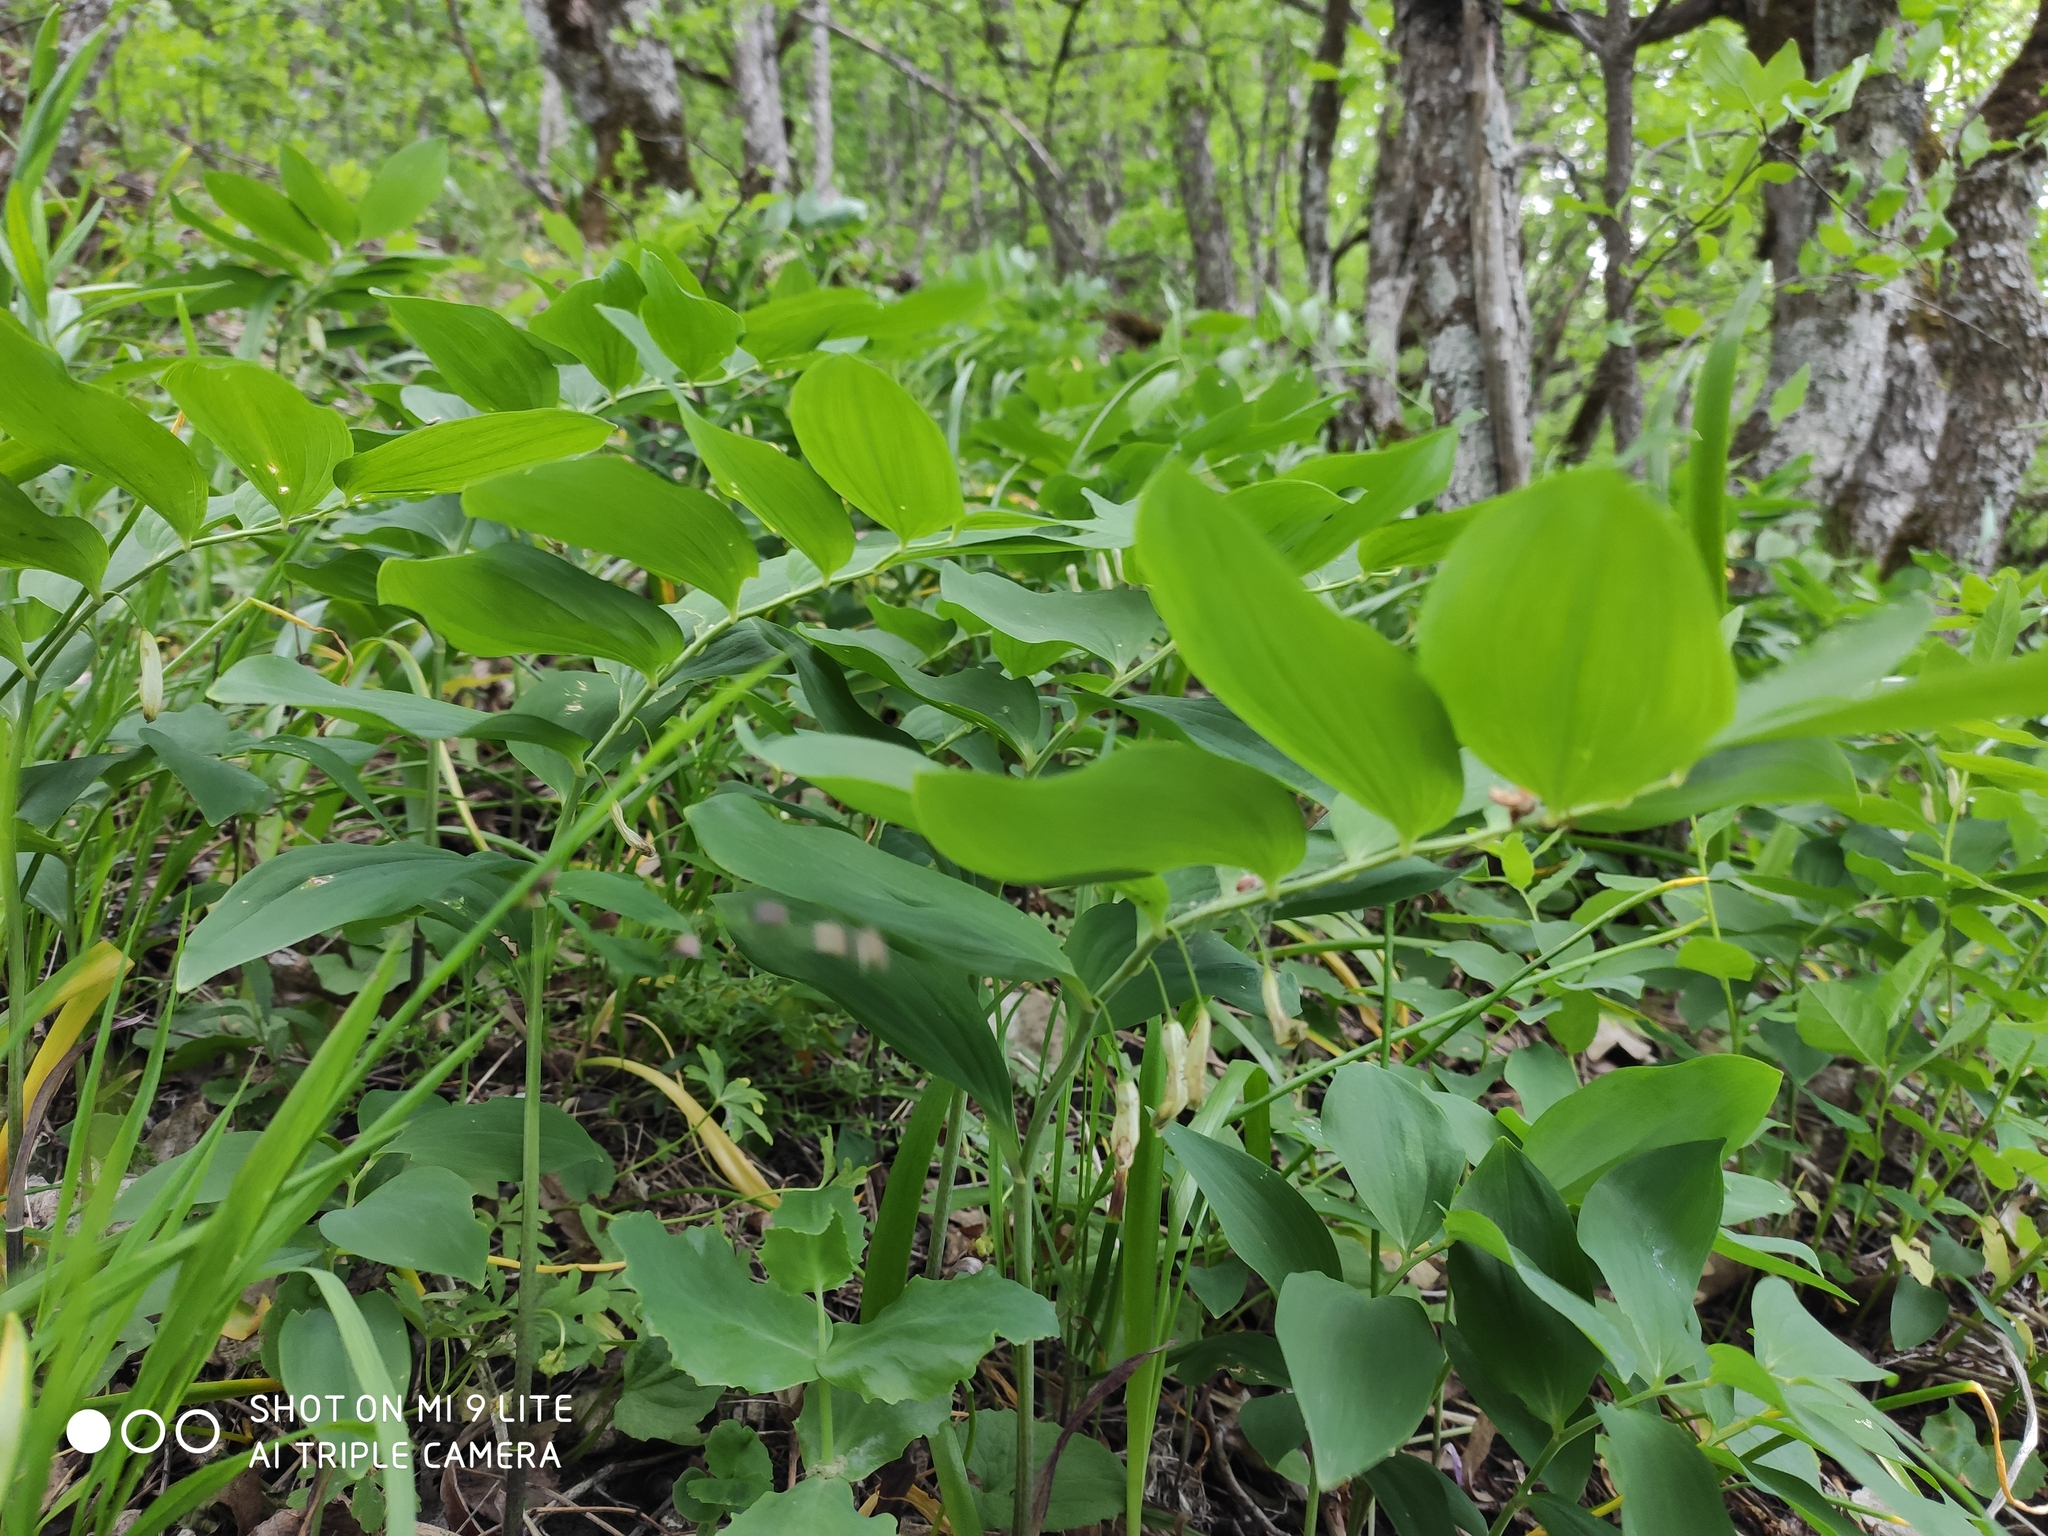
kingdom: Plantae
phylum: Tracheophyta
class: Liliopsida
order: Asparagales
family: Asparagaceae
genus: Polygonatum
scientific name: Polygonatum multiflorum
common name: Solomon's-seal
